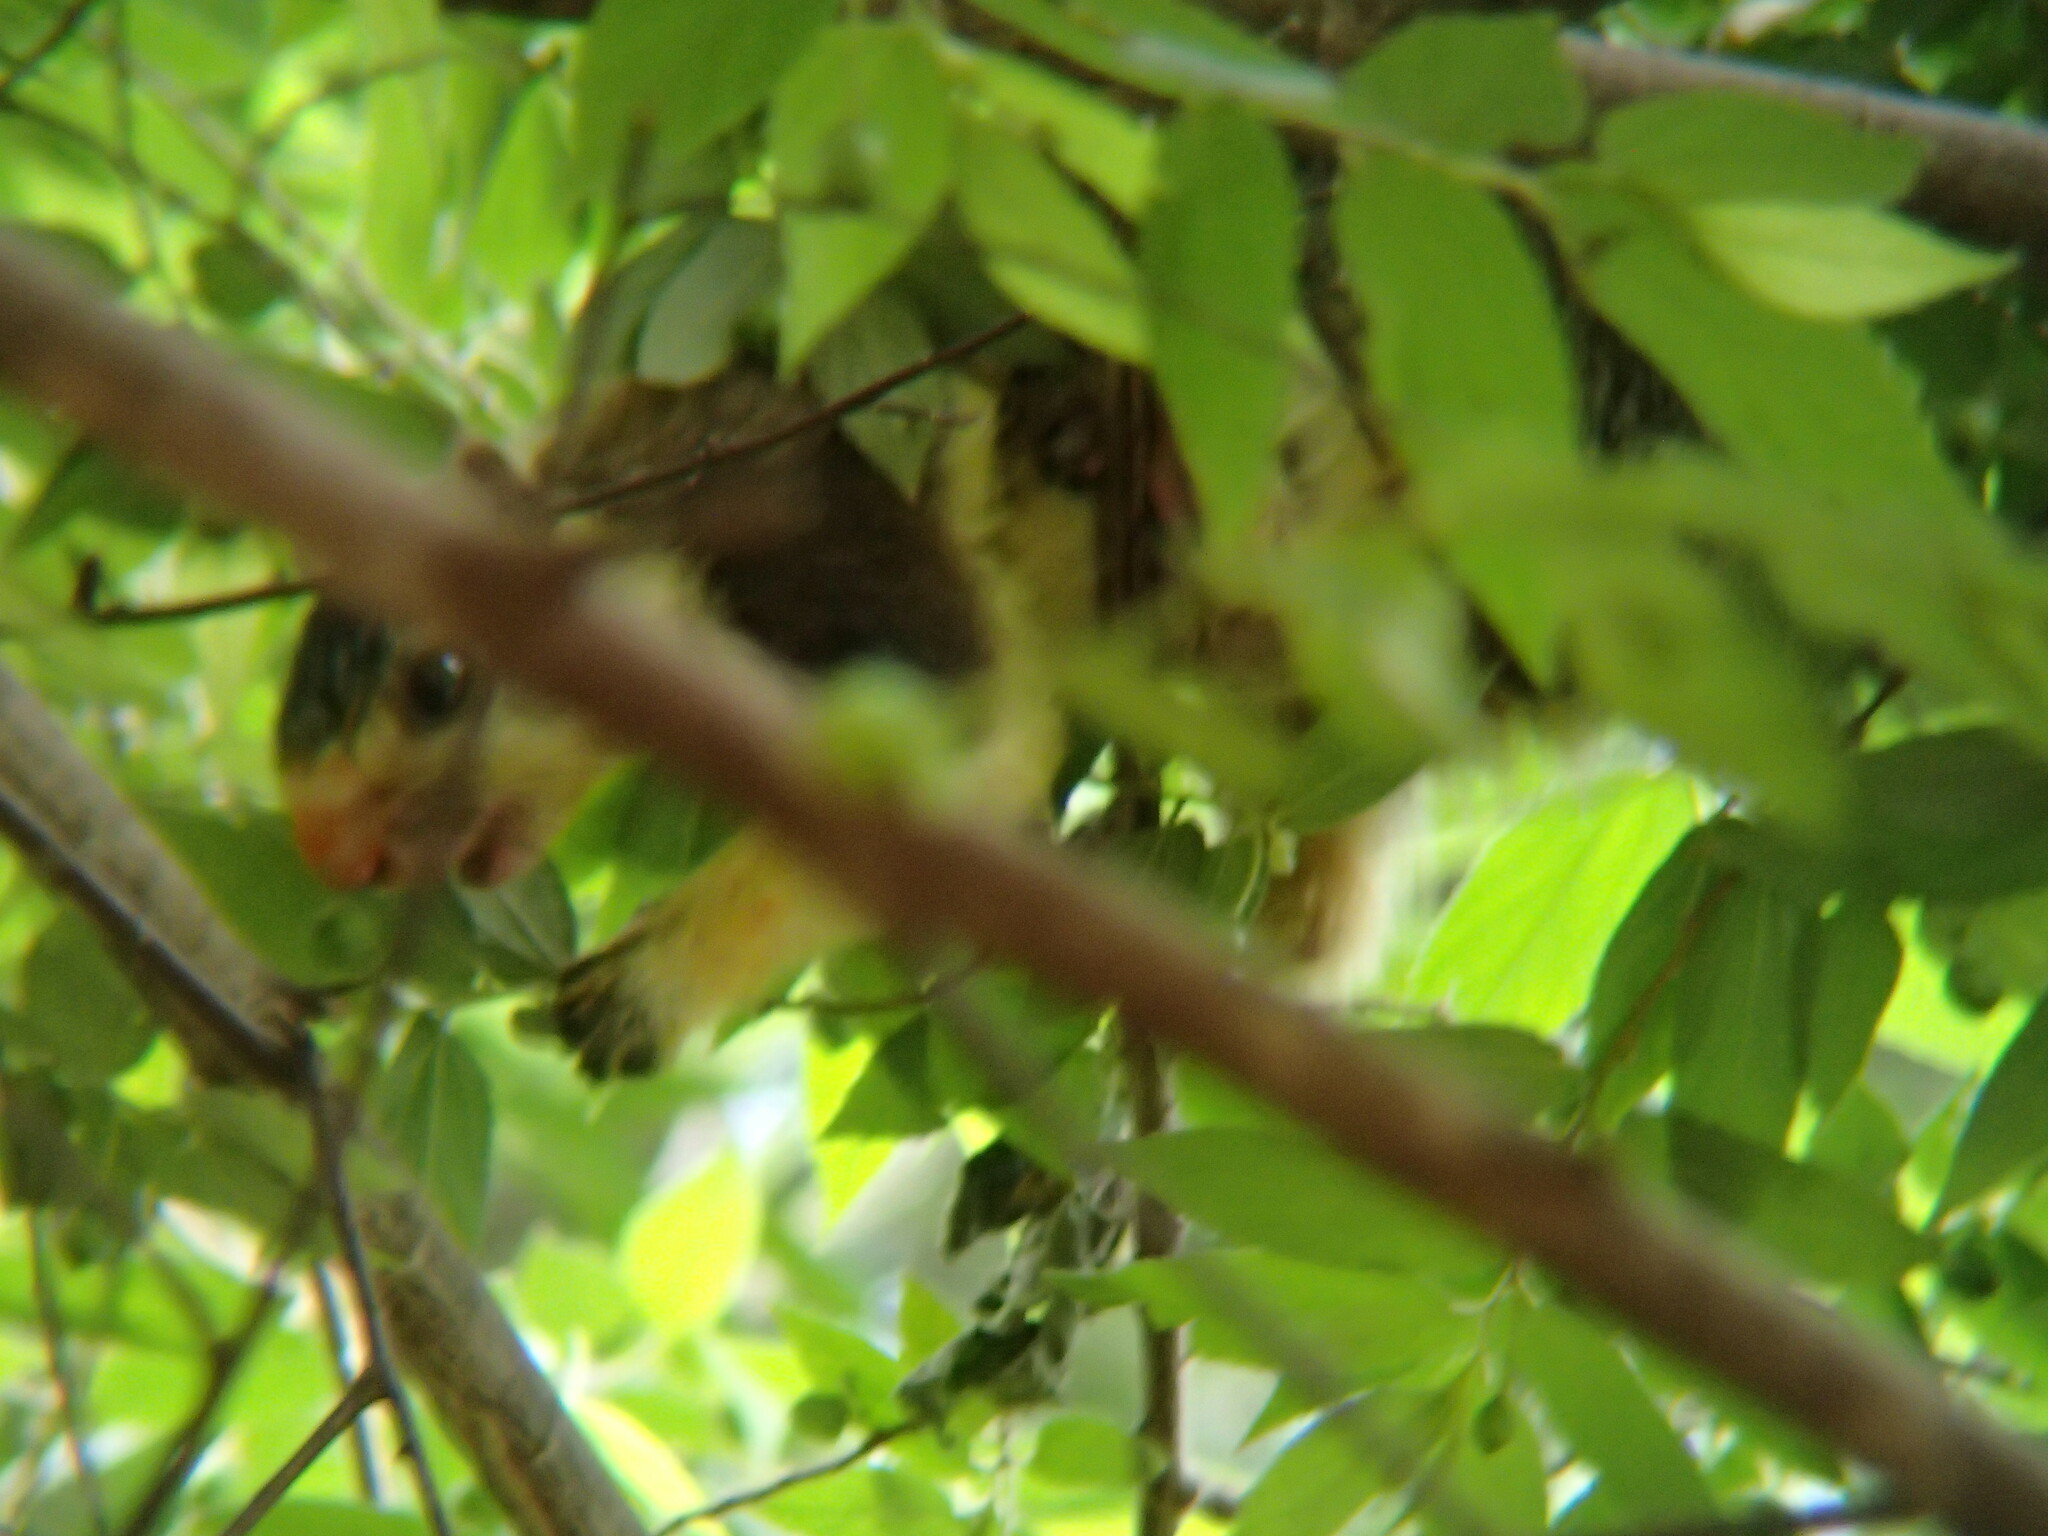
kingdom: Animalia
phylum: Chordata
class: Mammalia
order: Rodentia
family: Sciuridae
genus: Ratufa
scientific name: Ratufa macroura
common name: Sri lankan giant squirrel
